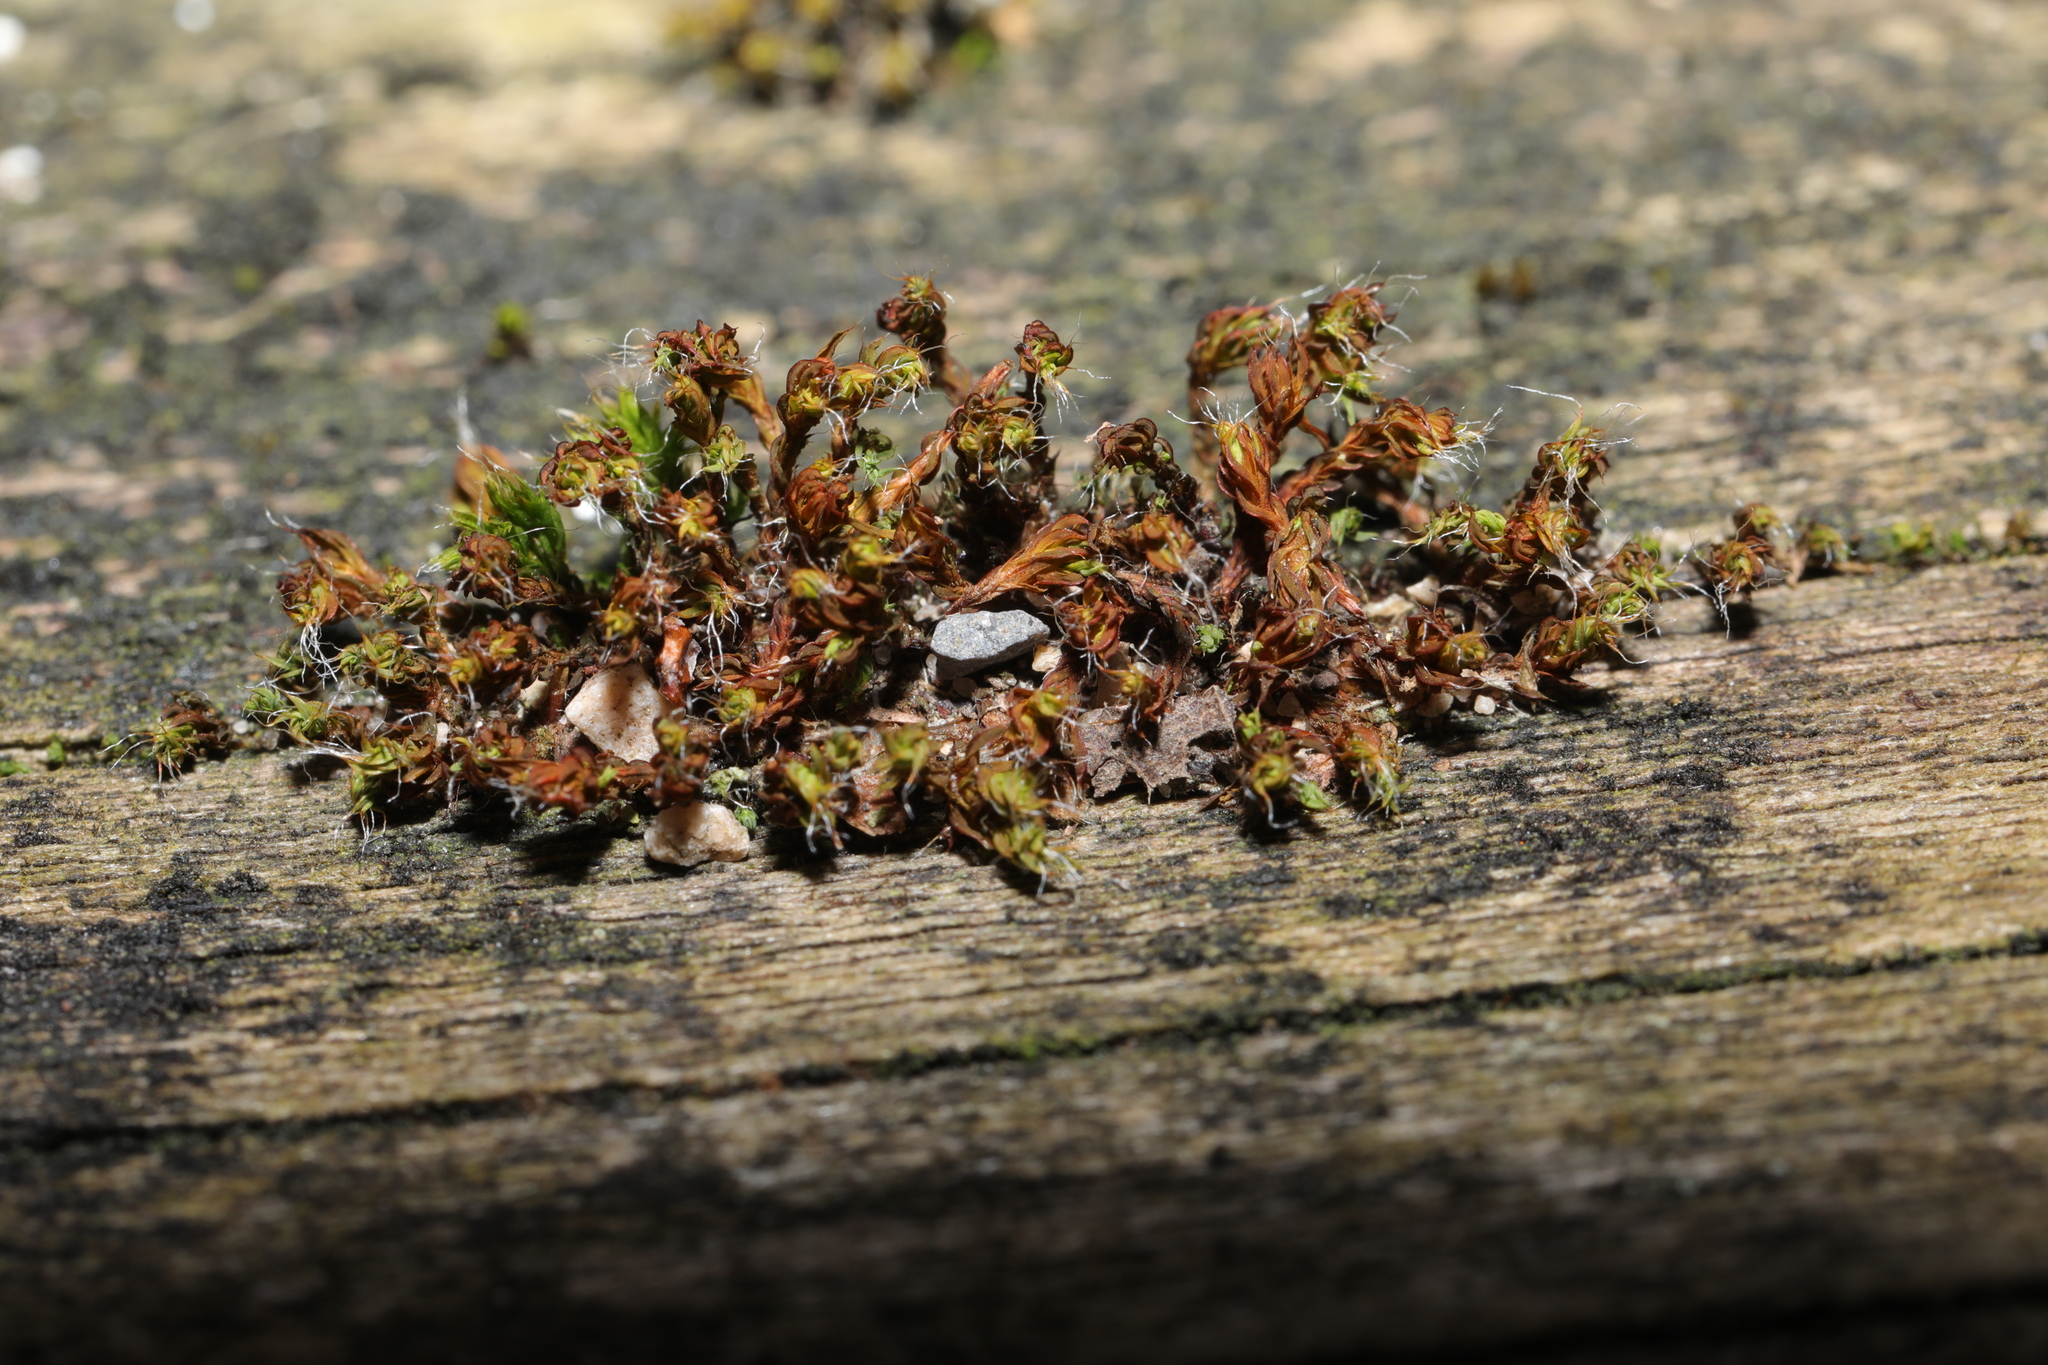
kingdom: Plantae
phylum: Bryophyta
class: Bryopsida
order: Orthotrichales
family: Orthotrichaceae
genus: Lewinskya
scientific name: Lewinskya affinis
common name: Wood bristle-moss
